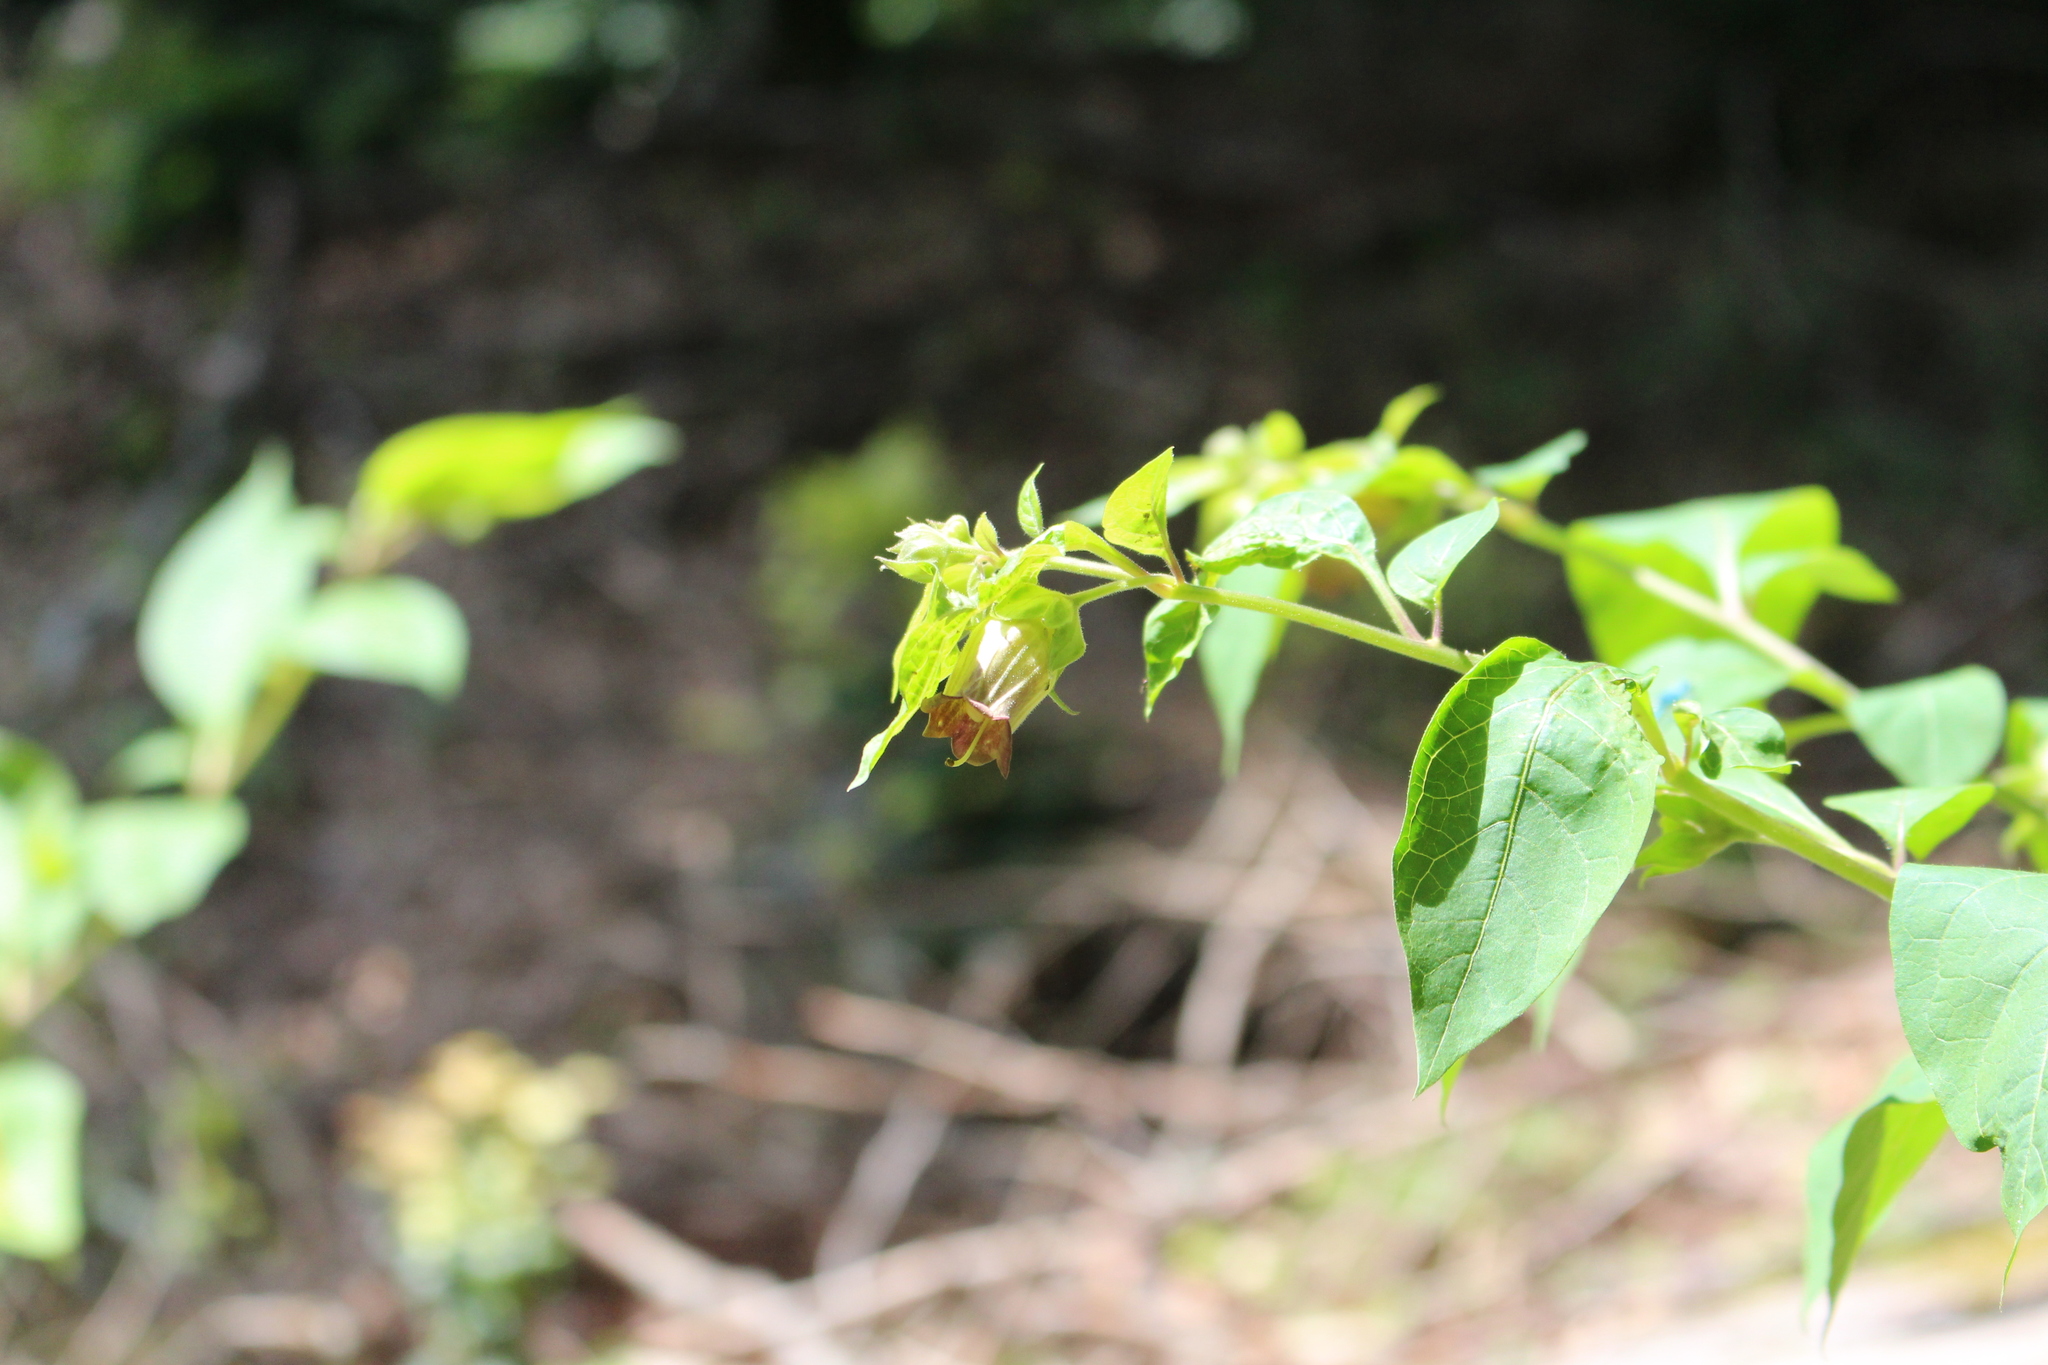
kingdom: Plantae
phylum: Tracheophyta
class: Magnoliopsida
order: Solanales
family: Solanaceae
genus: Atropa
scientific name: Atropa belladonna
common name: Deadly nightshade
